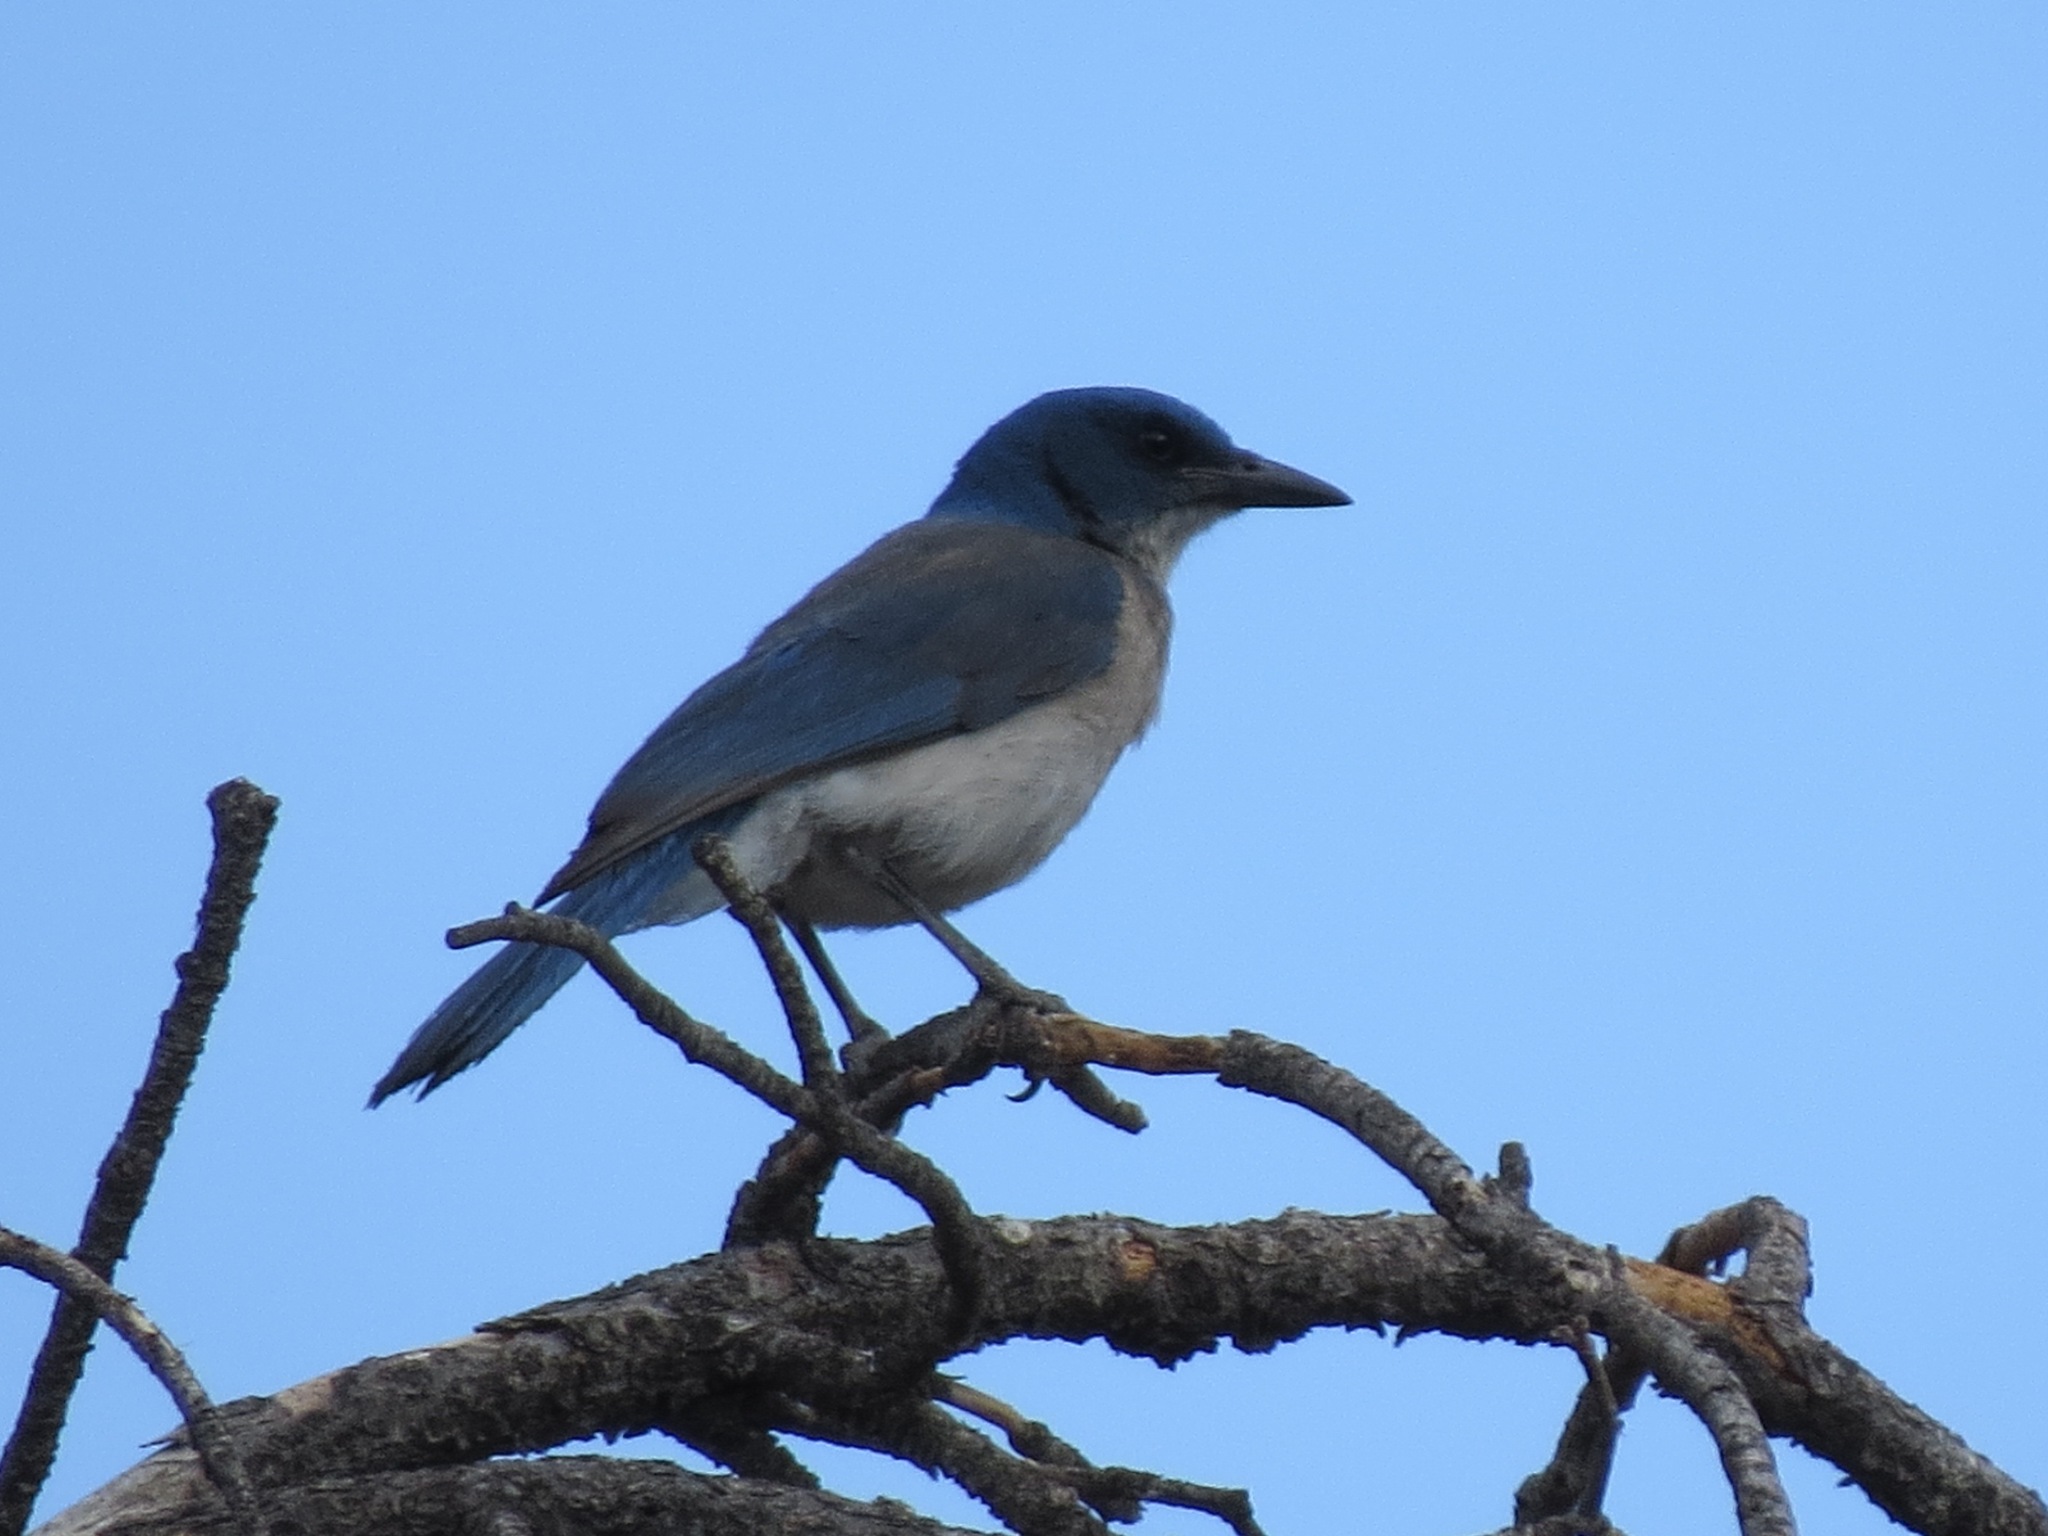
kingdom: Animalia
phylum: Chordata
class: Aves
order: Passeriformes
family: Corvidae
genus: Aphelocoma
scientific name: Aphelocoma wollweberi
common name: Mexican jay
